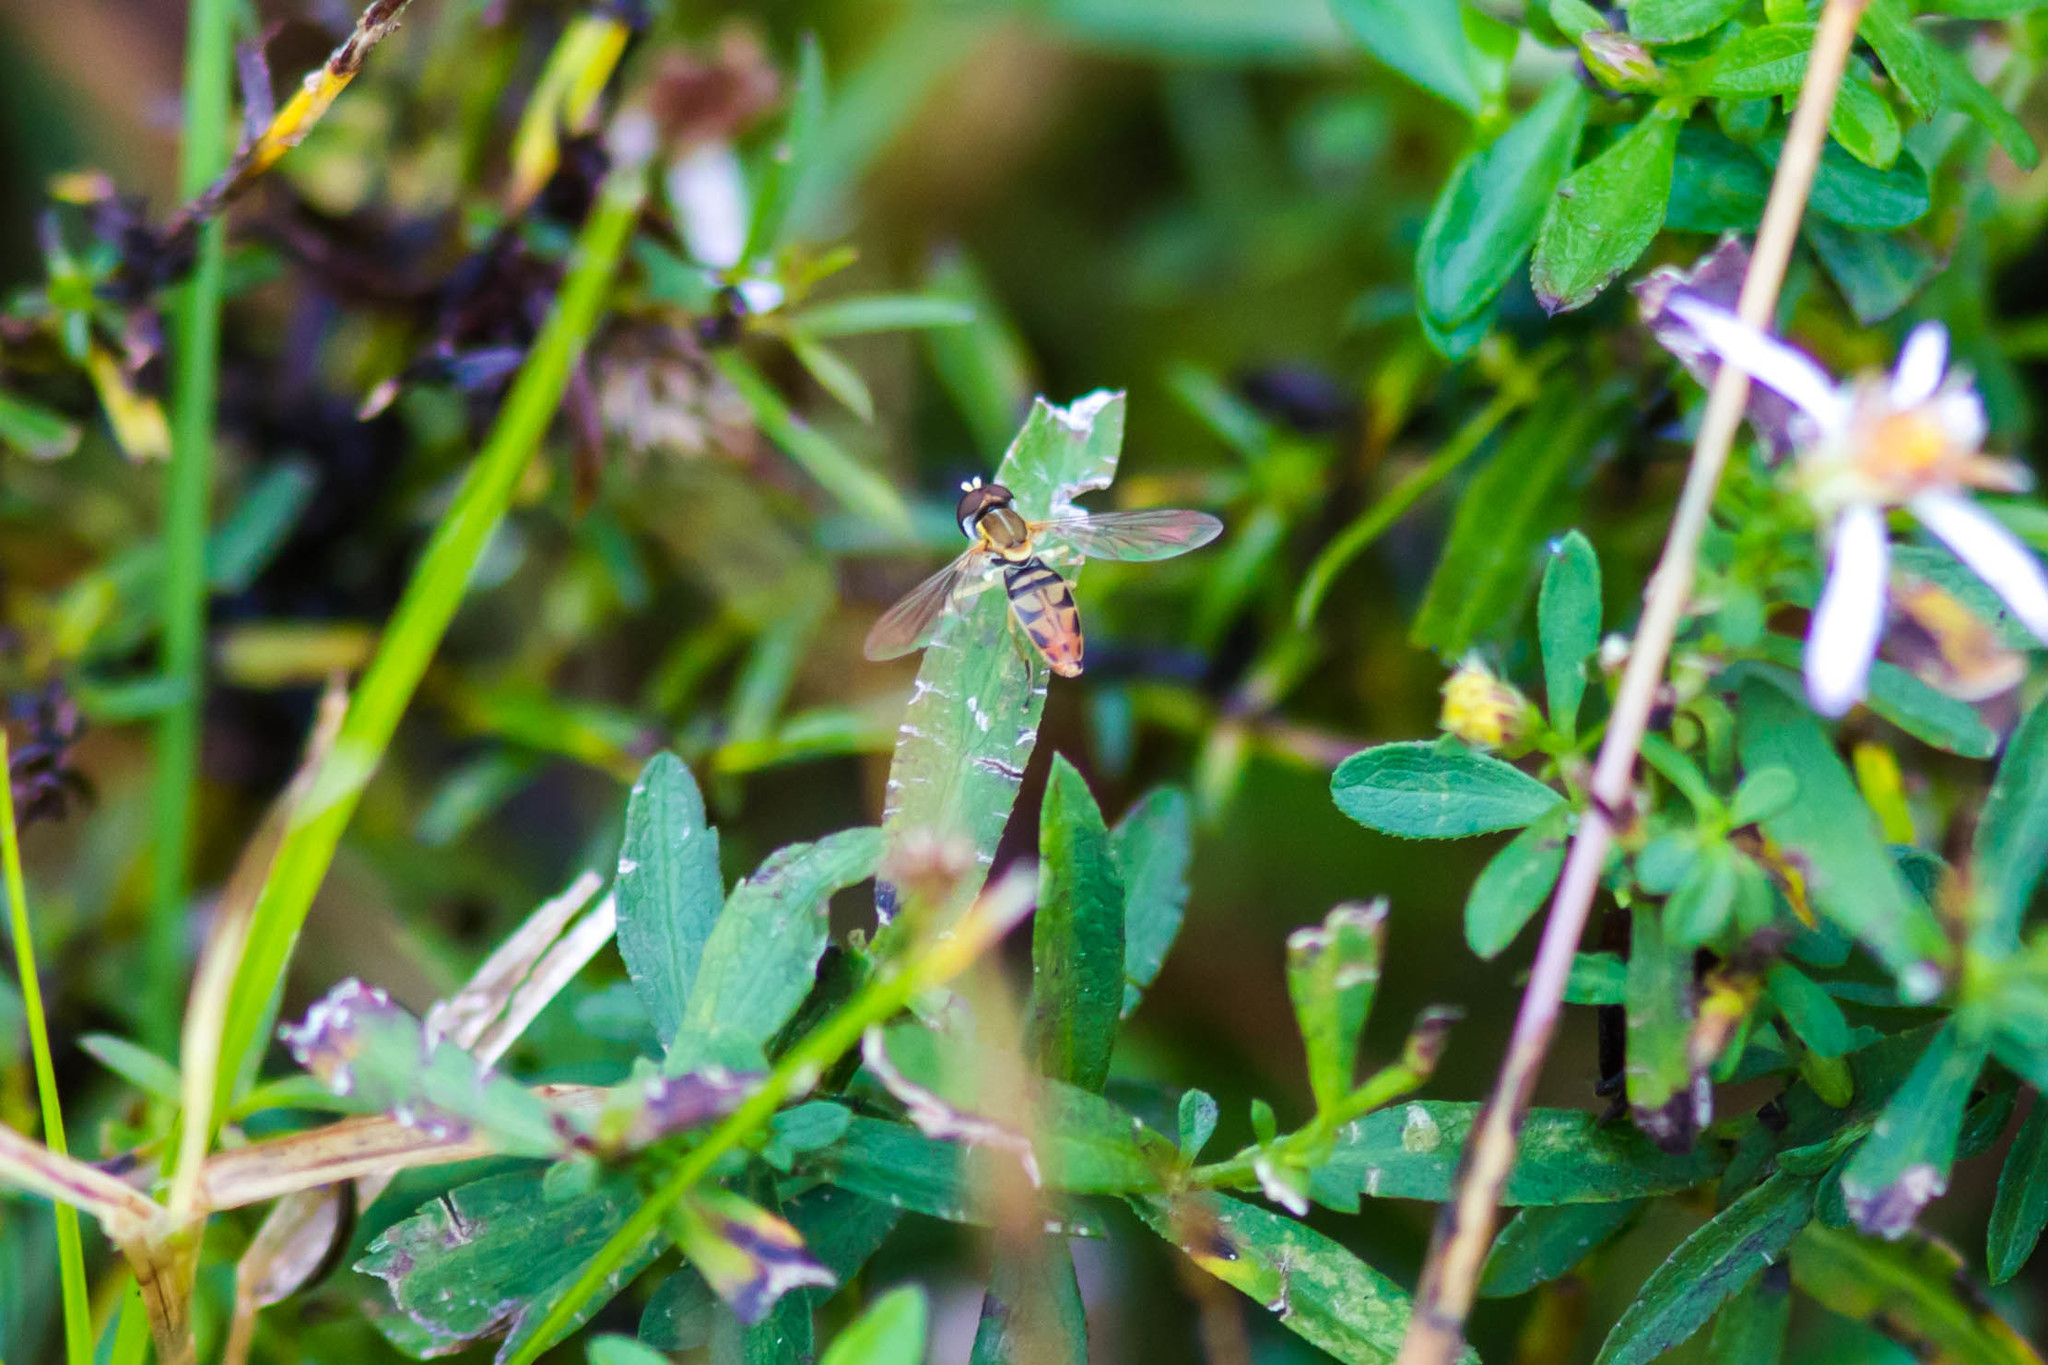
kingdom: Animalia
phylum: Arthropoda
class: Insecta
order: Diptera
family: Syrphidae
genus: Toxomerus
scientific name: Toxomerus marginatus
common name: Syrphid fly
